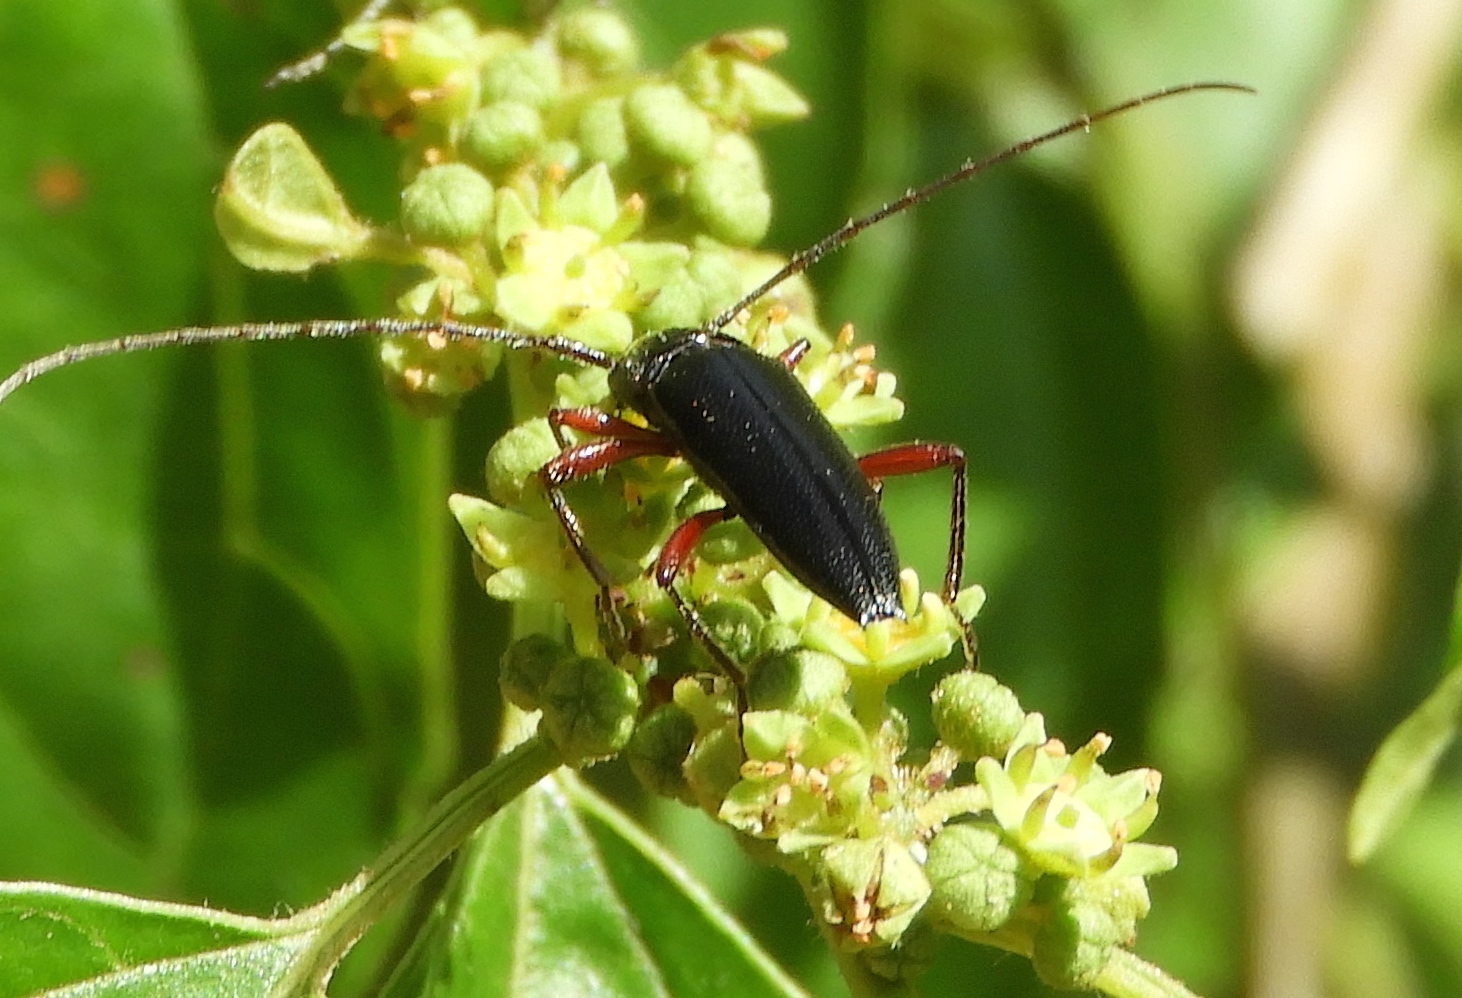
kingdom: Animalia
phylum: Arthropoda
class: Insecta
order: Coleoptera
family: Cerambycidae
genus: Stenosphenus
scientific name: Stenosphenus
